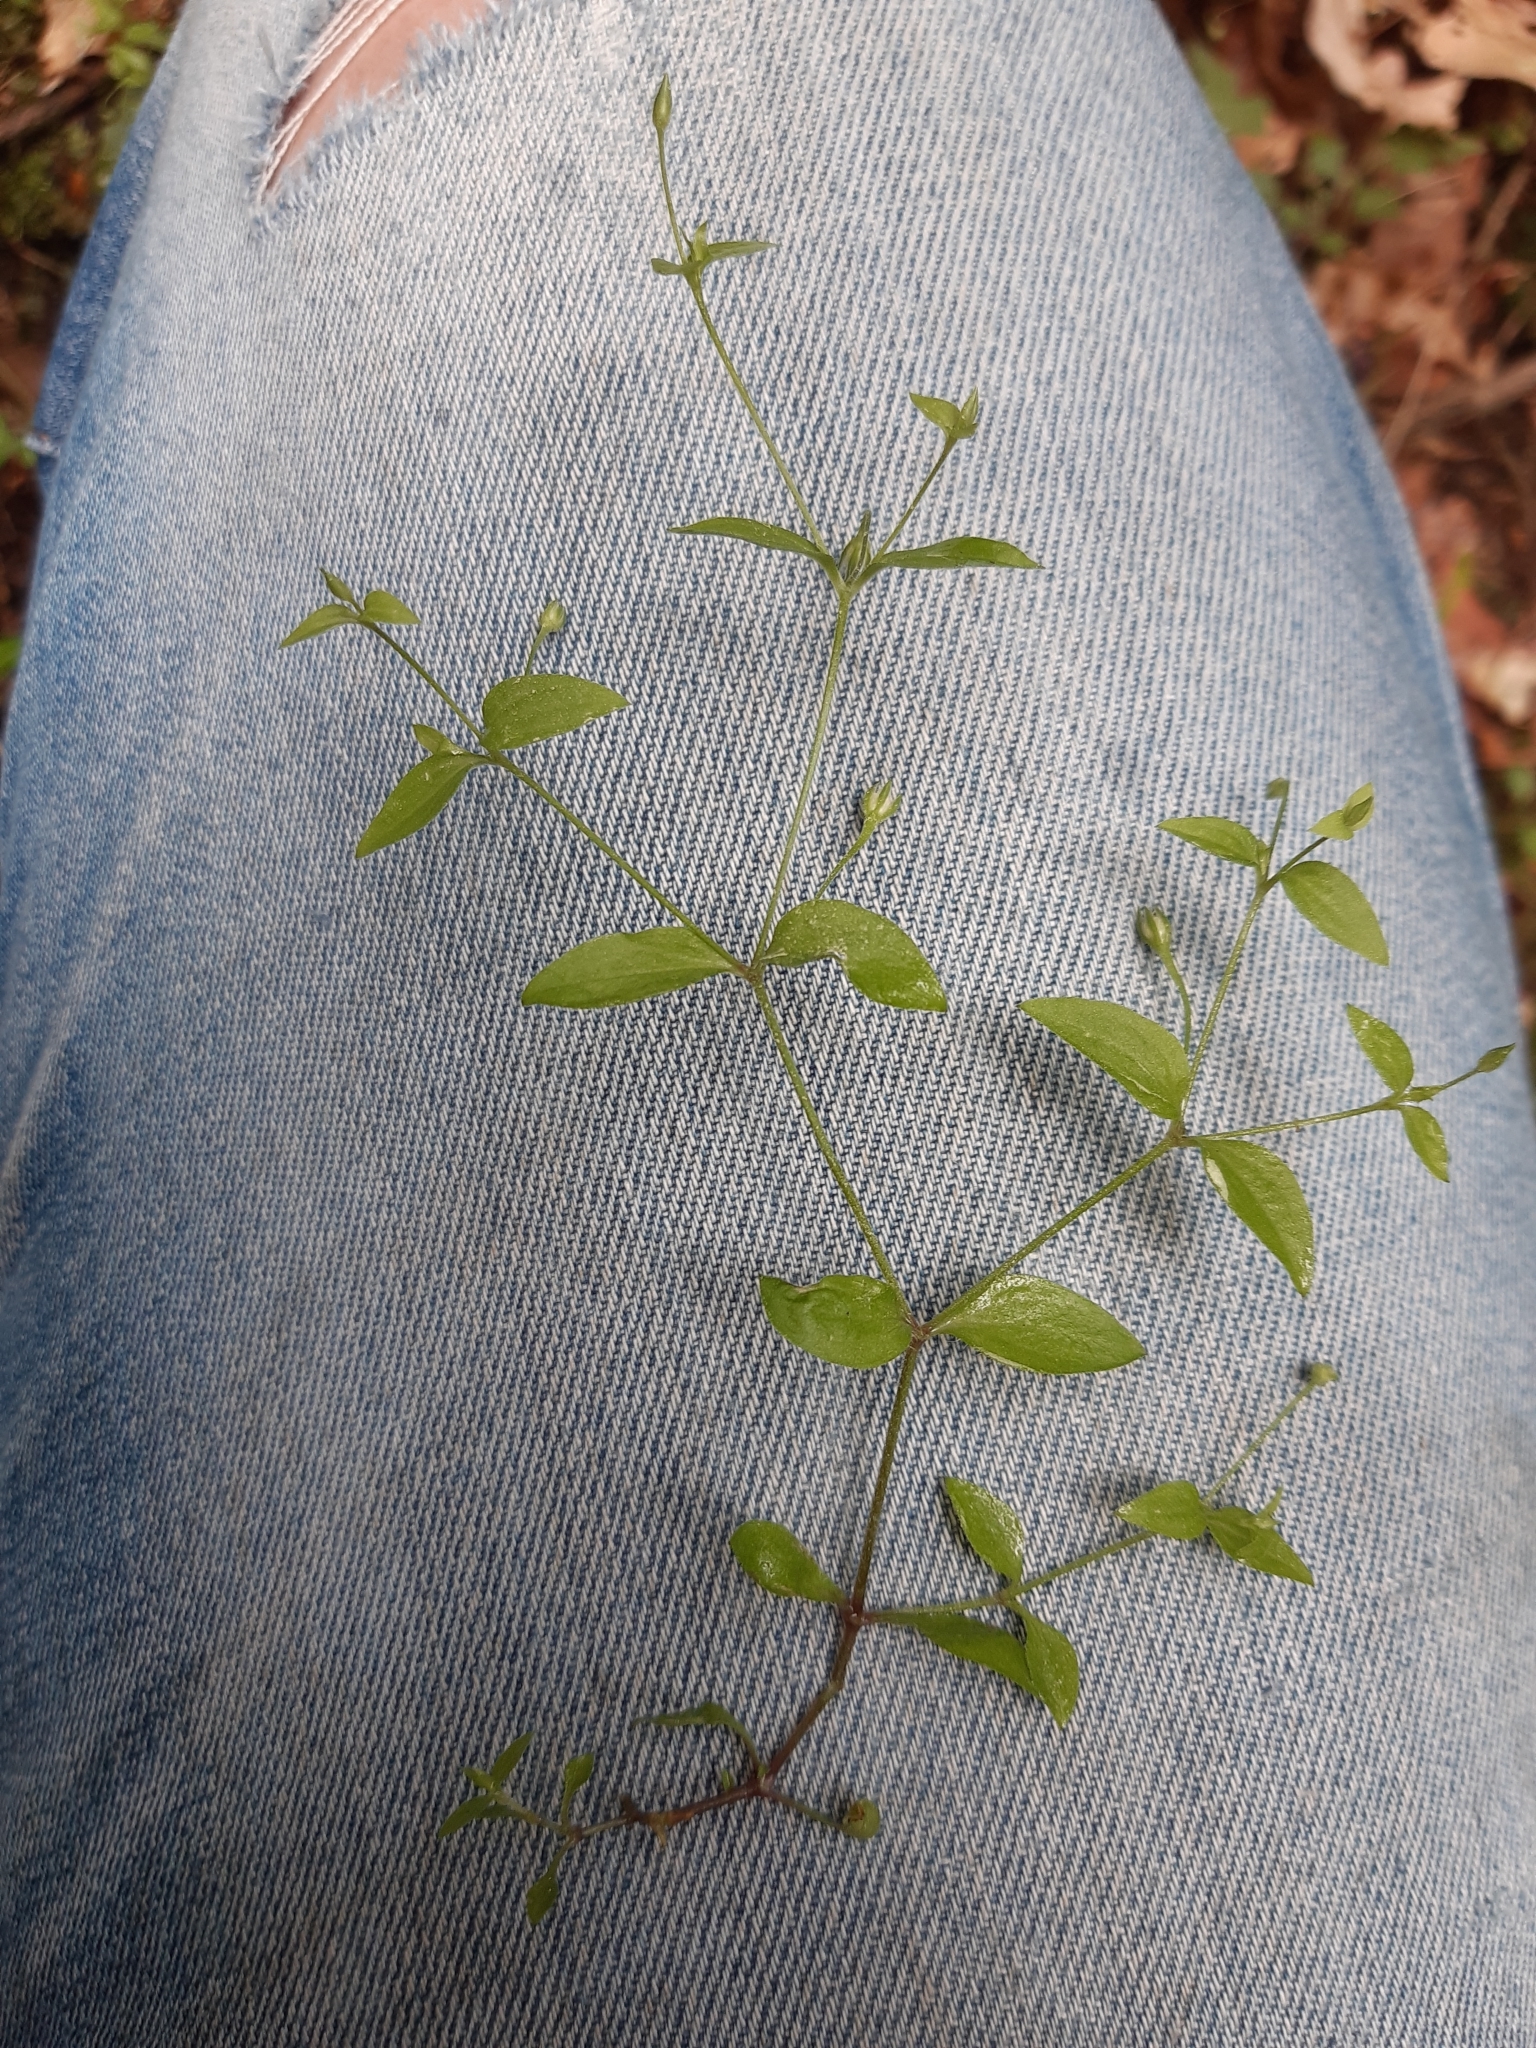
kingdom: Plantae
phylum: Tracheophyta
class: Magnoliopsida
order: Caryophyllales
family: Caryophyllaceae
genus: Moehringia
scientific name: Moehringia trinervia
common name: Three-nerved sandwort
